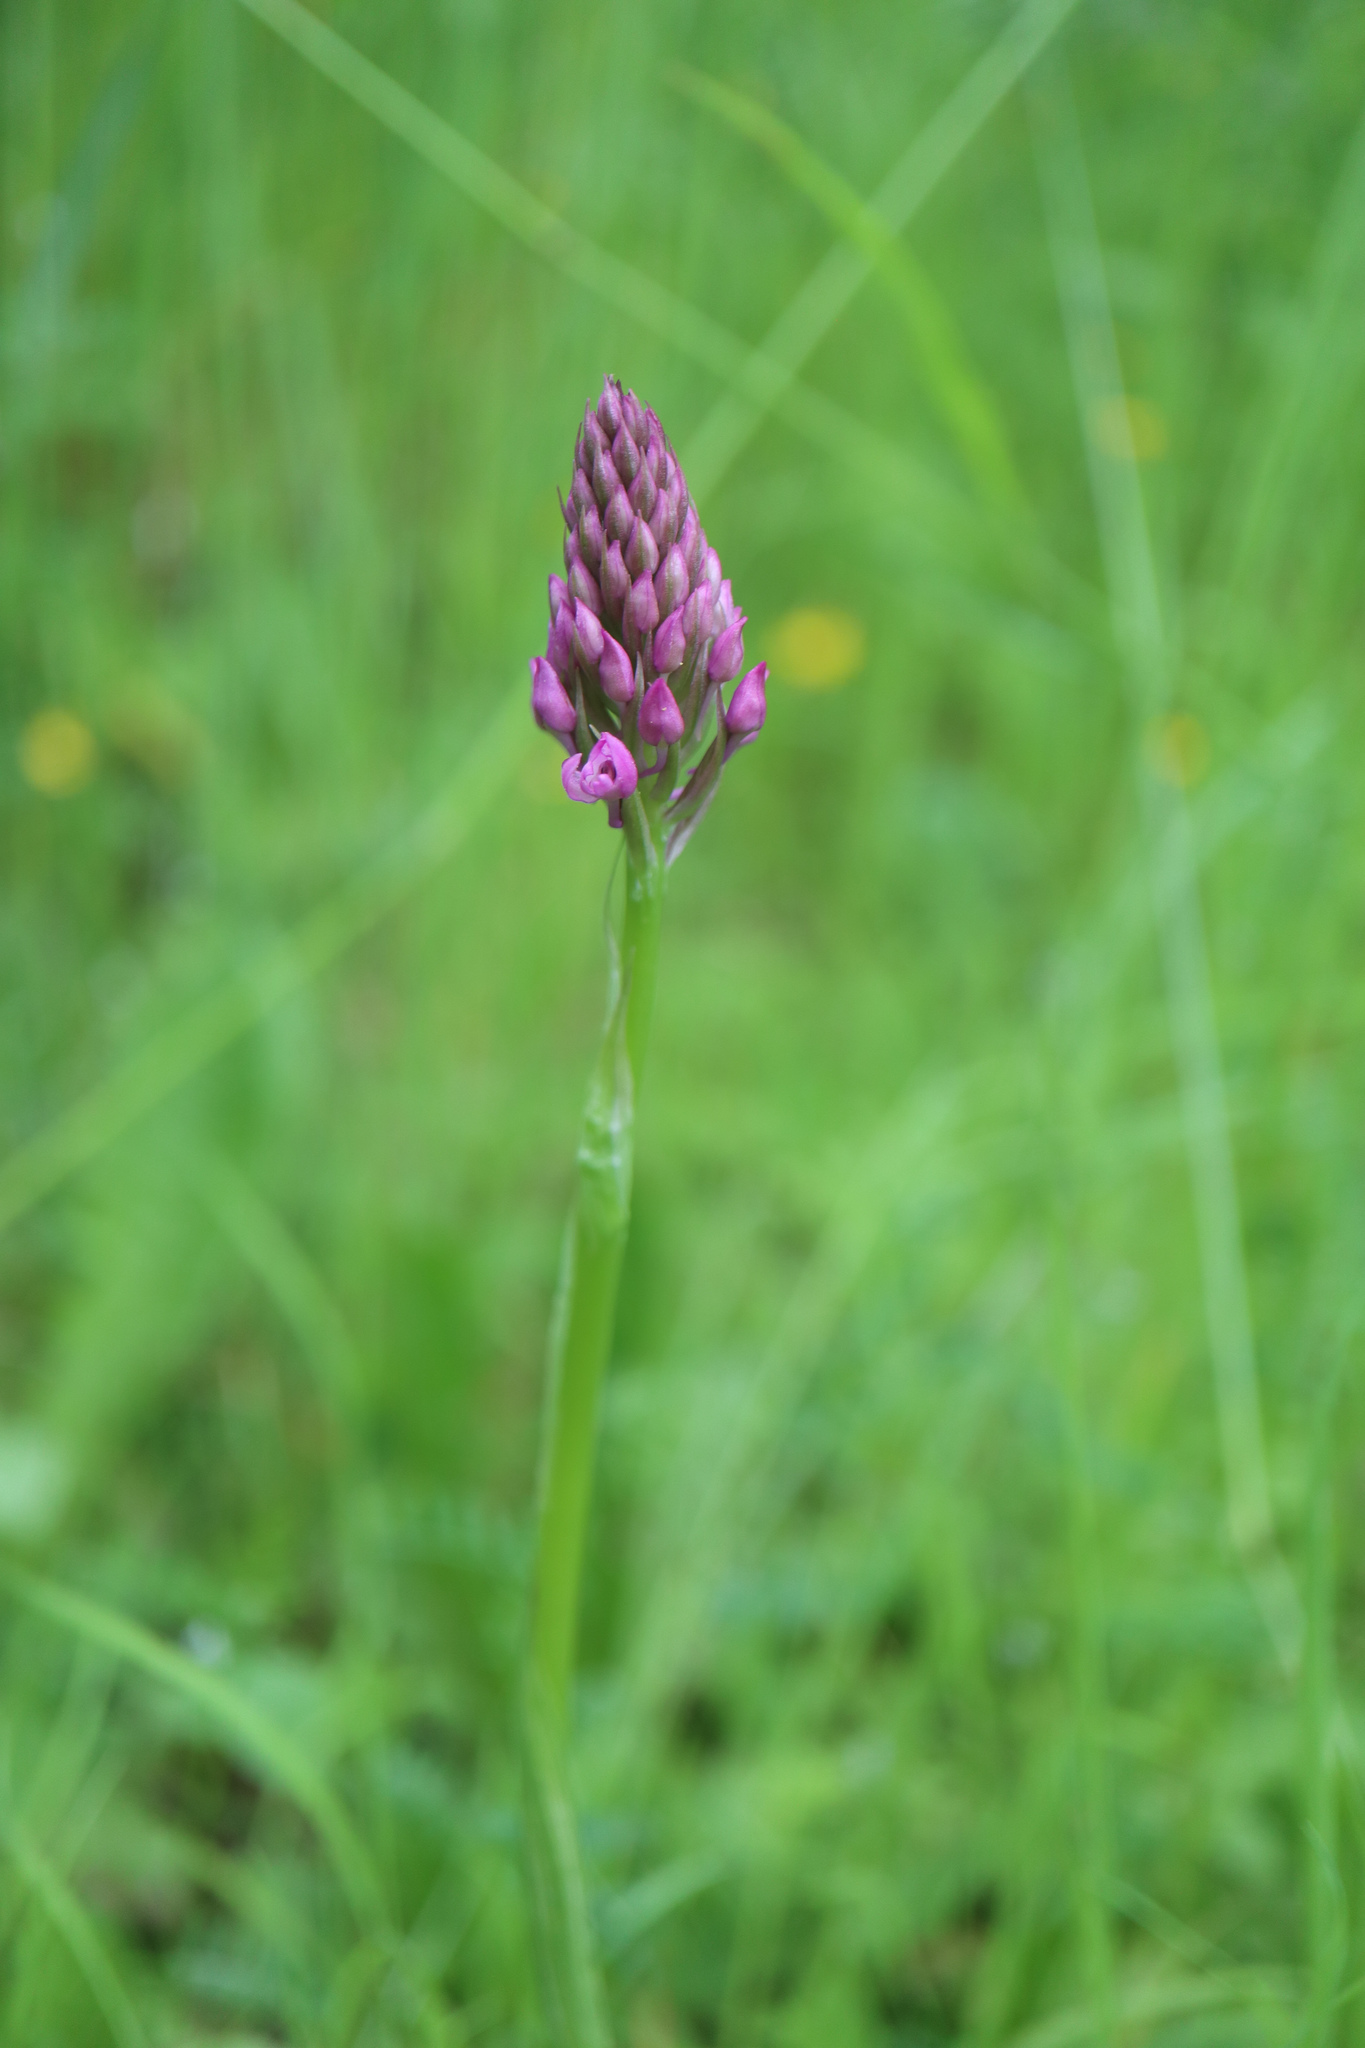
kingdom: Plantae
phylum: Tracheophyta
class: Liliopsida
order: Asparagales
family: Orchidaceae
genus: Anacamptis
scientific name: Anacamptis pyramidalis
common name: Pyramidal orchid
